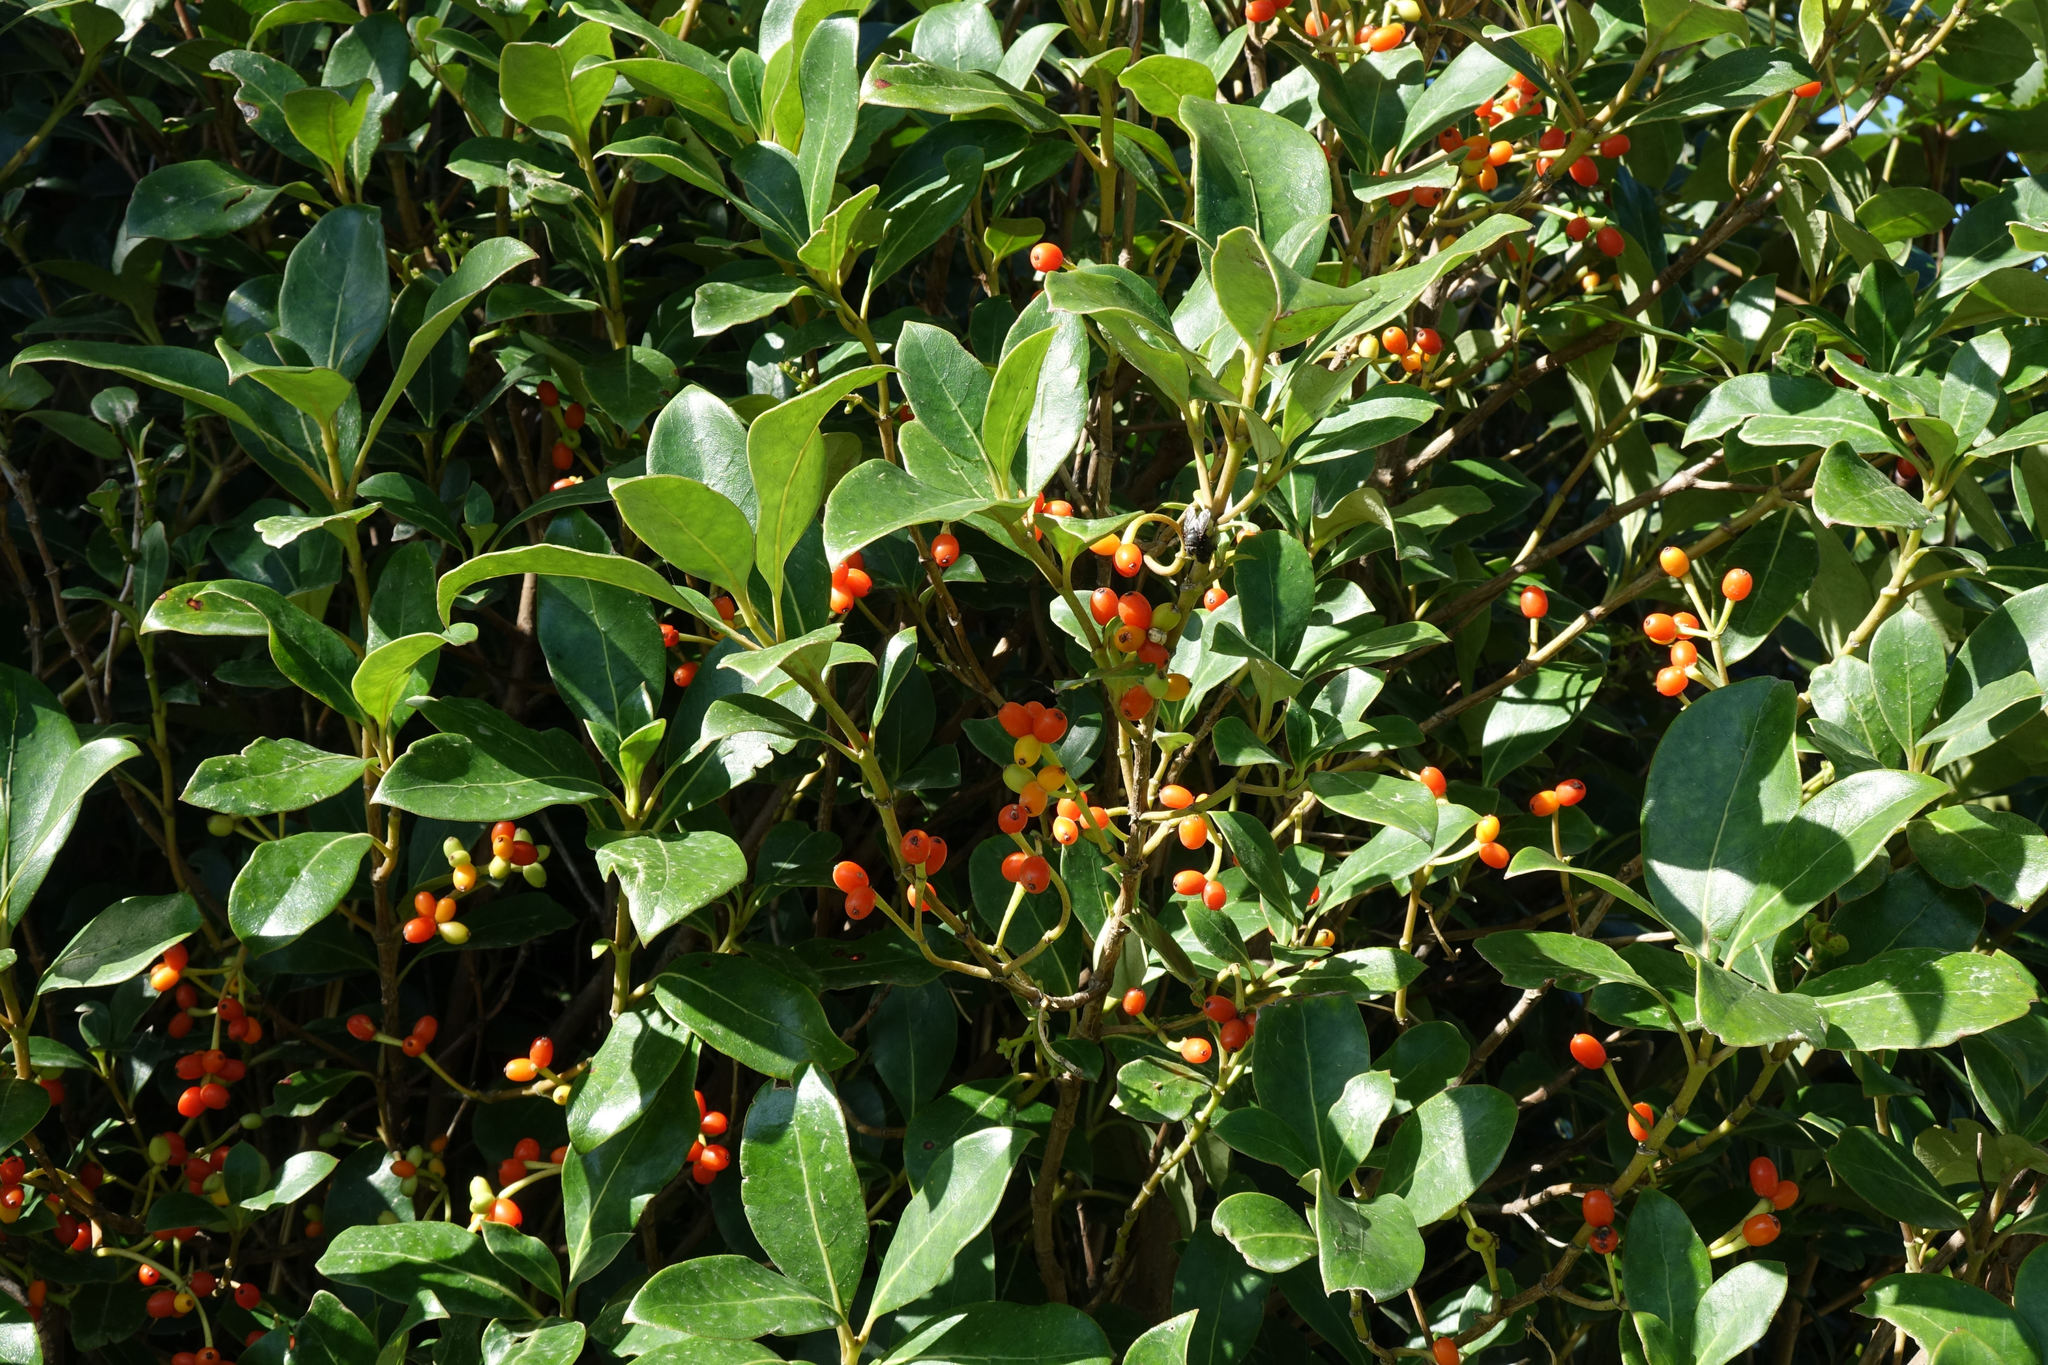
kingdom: Plantae
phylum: Tracheophyta
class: Magnoliopsida
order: Gentianales
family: Rubiaceae
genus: Coprosma
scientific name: Coprosma lucida
